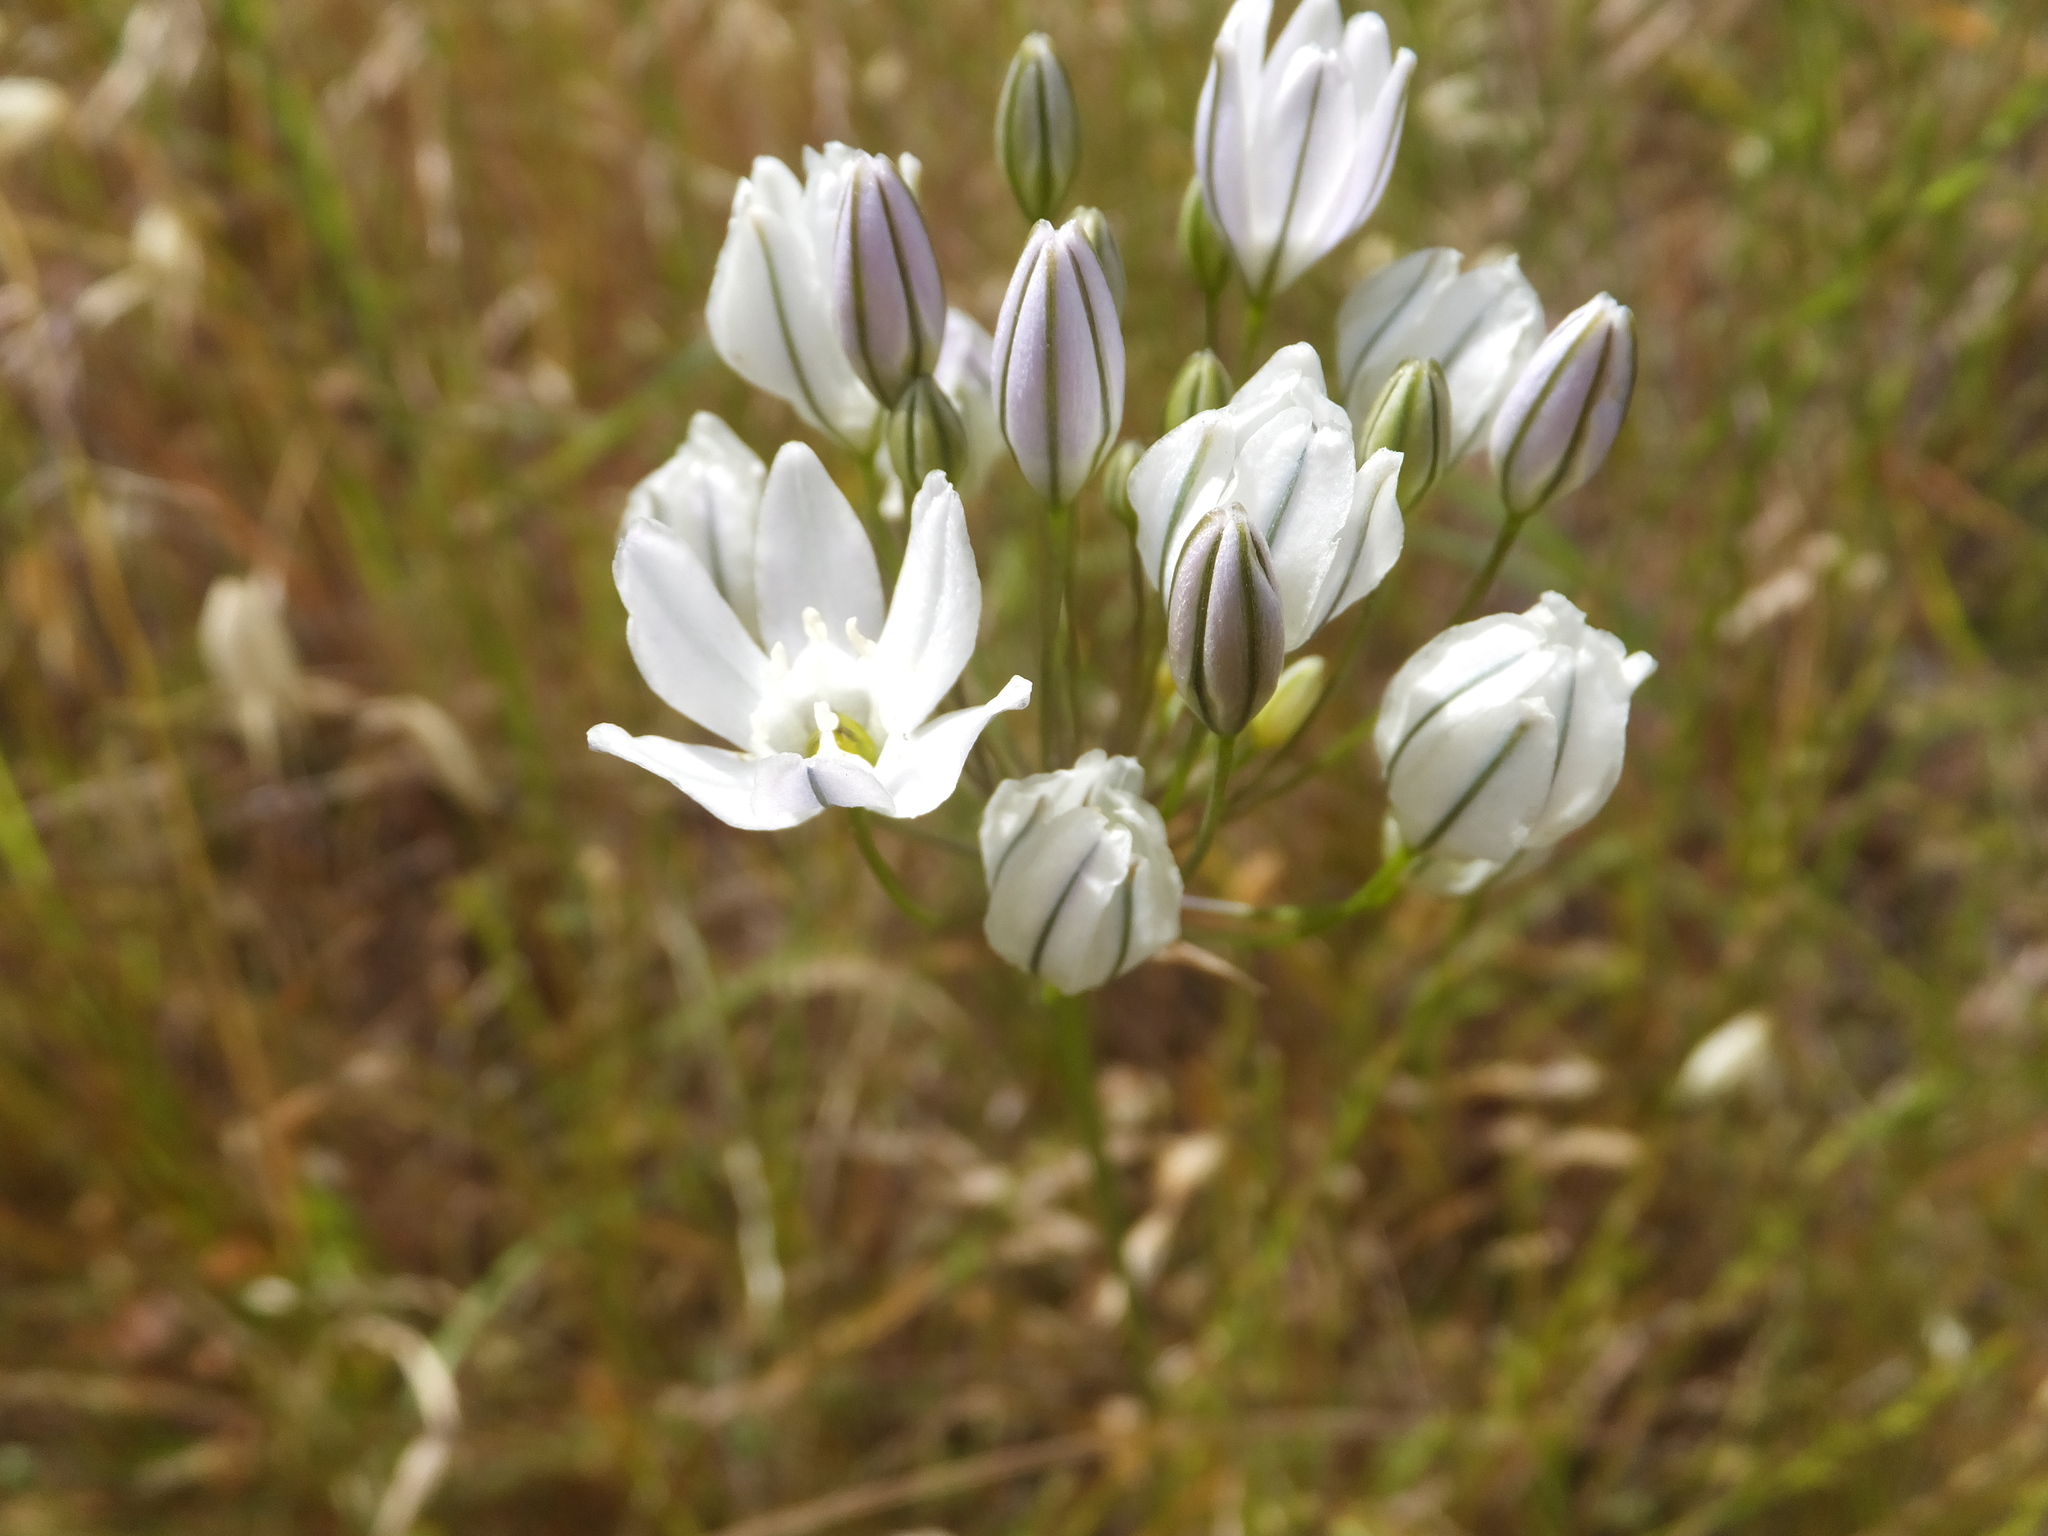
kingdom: Plantae
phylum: Tracheophyta
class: Liliopsida
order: Asparagales
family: Asparagaceae
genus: Triteleia
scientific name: Triteleia hyacinthina
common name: White brodiaea
